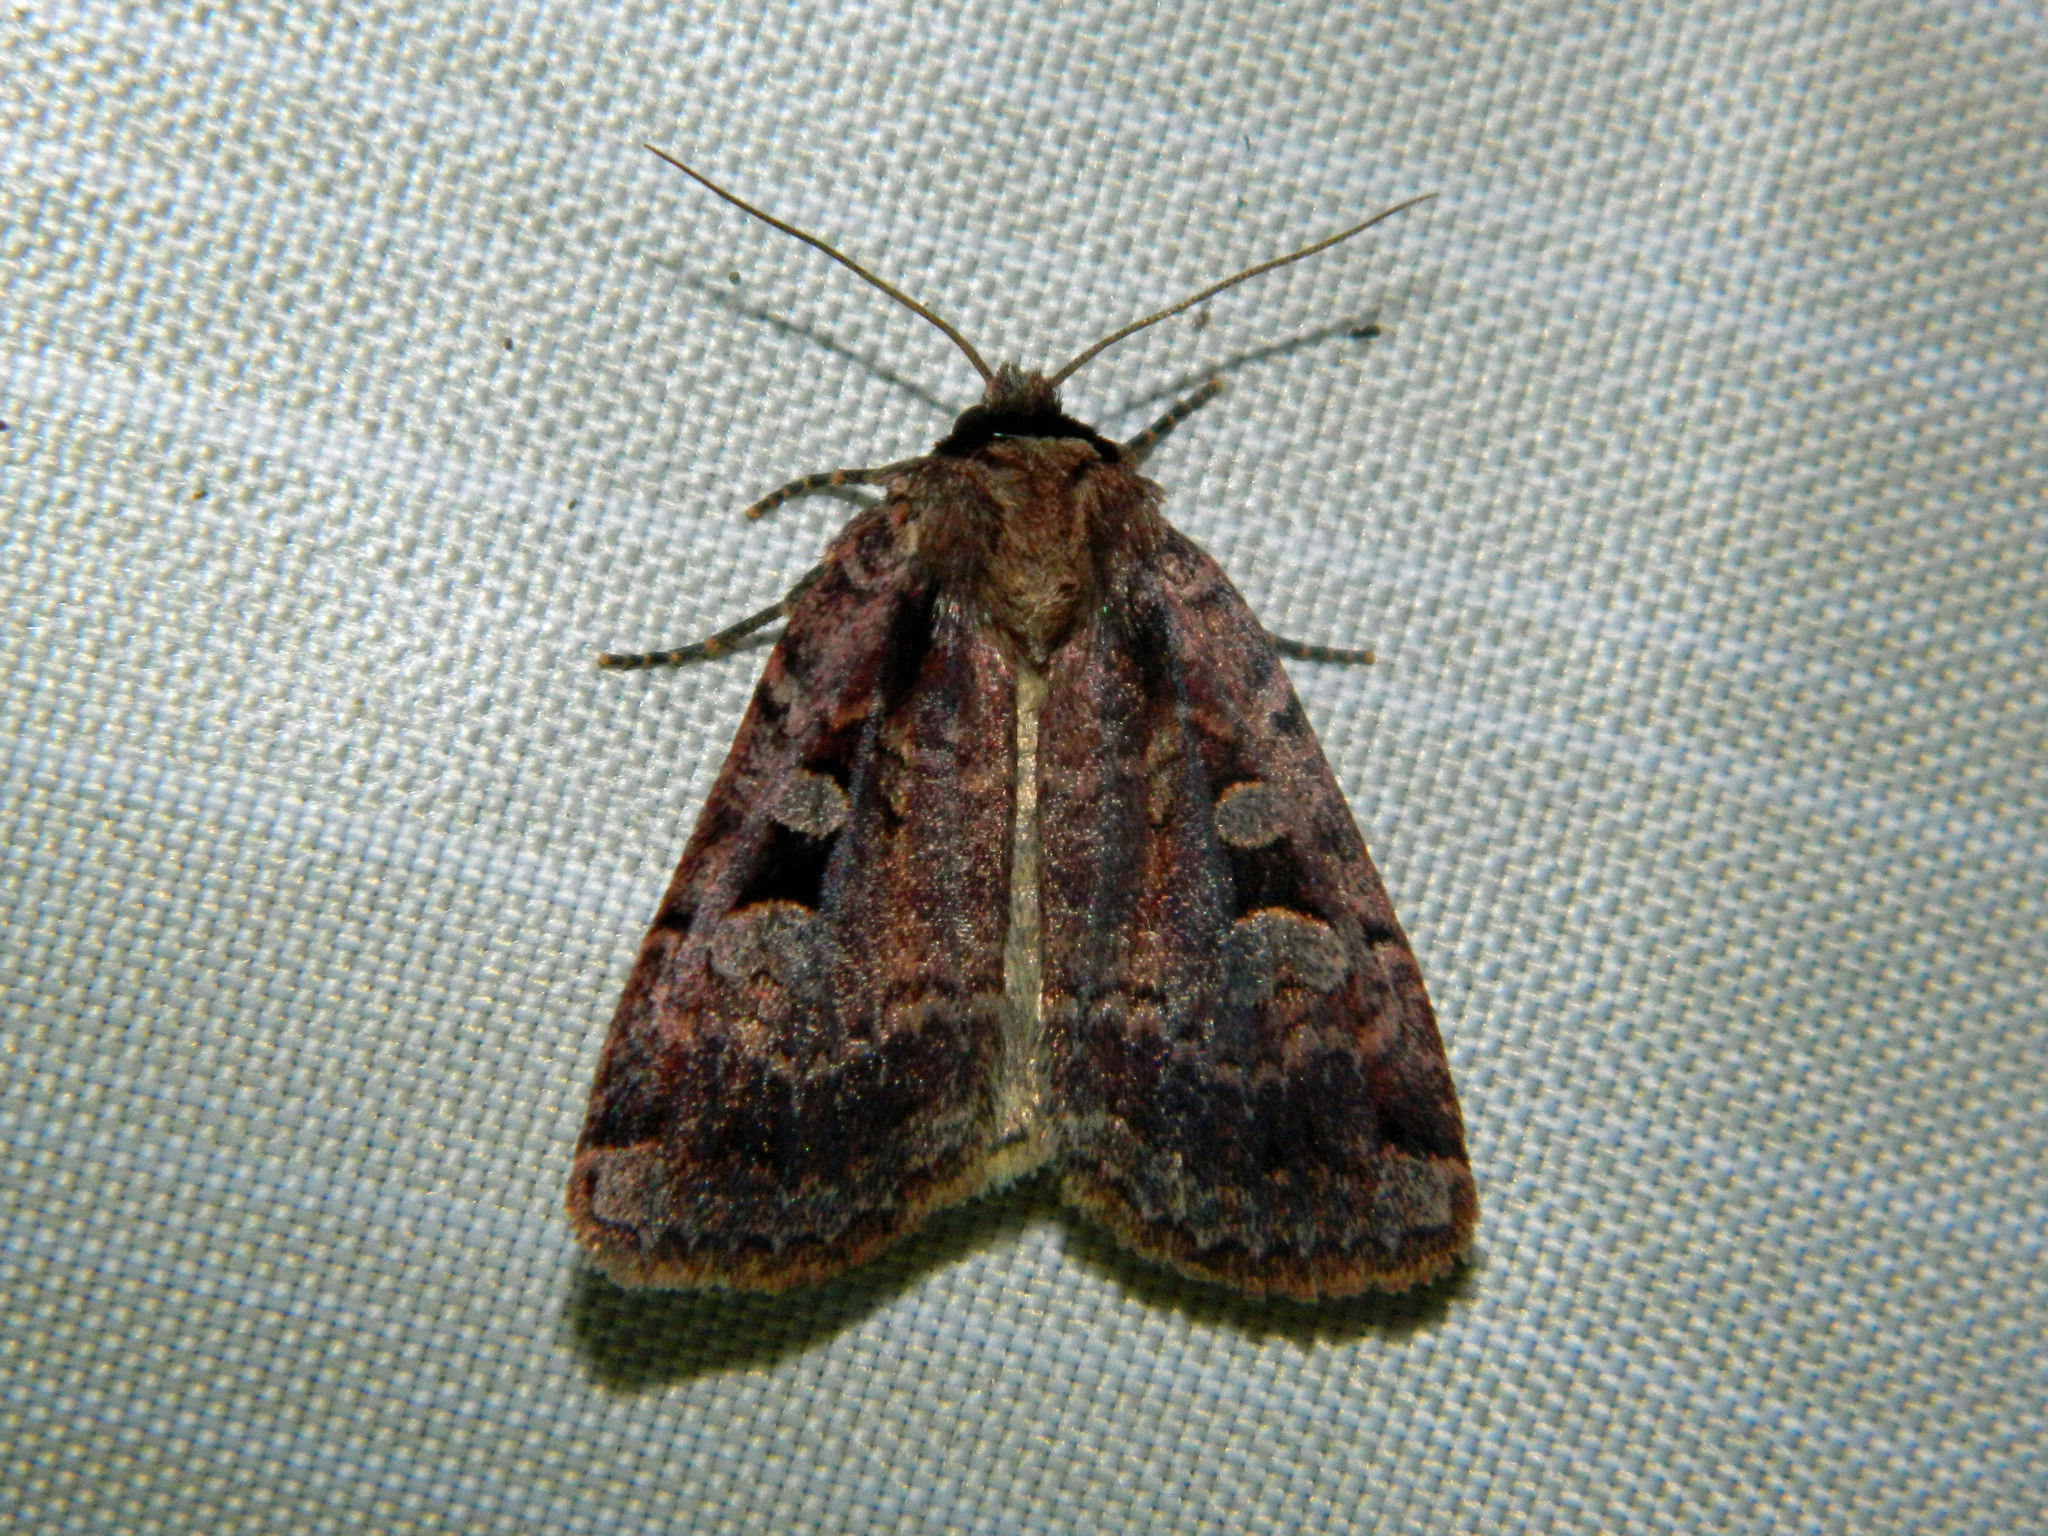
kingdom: Animalia
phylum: Arthropoda
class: Insecta
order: Lepidoptera
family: Noctuidae
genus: Eueretagrotis
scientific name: Eueretagrotis perattentus
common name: Two-spot dart moth
